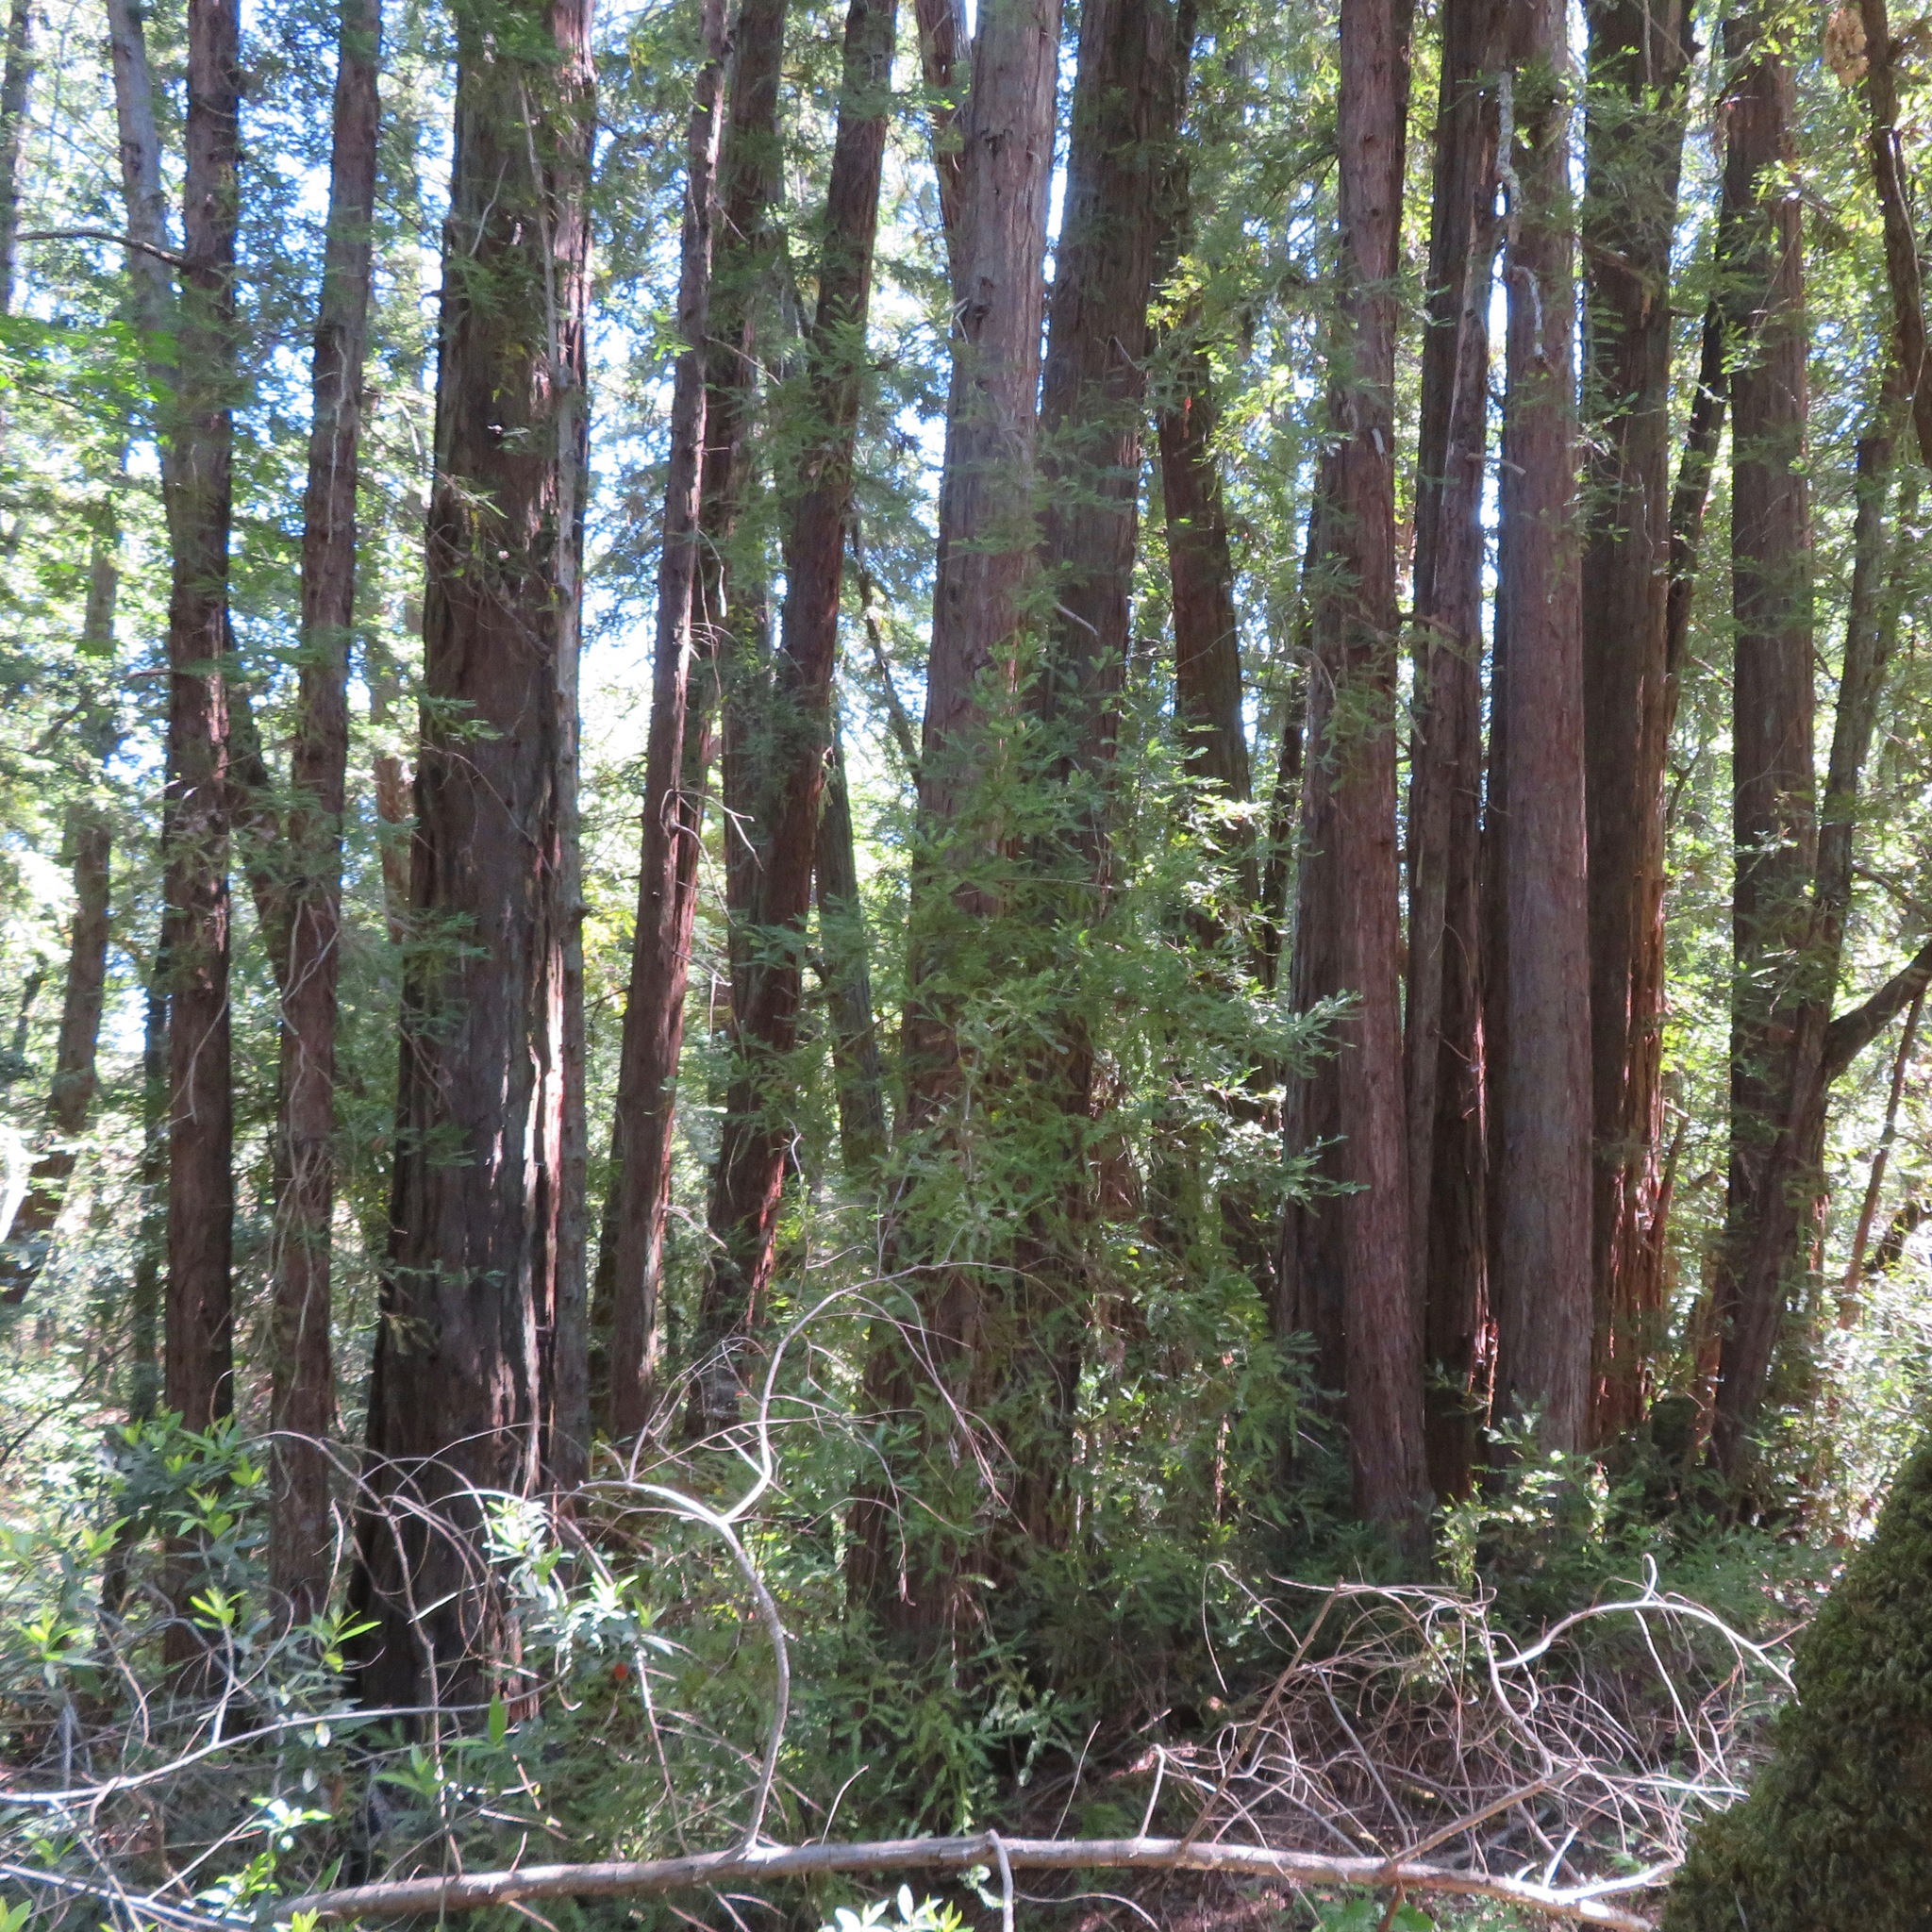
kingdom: Plantae
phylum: Tracheophyta
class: Pinopsida
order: Pinales
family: Cupressaceae
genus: Sequoia
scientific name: Sequoia sempervirens
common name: Coast redwood
